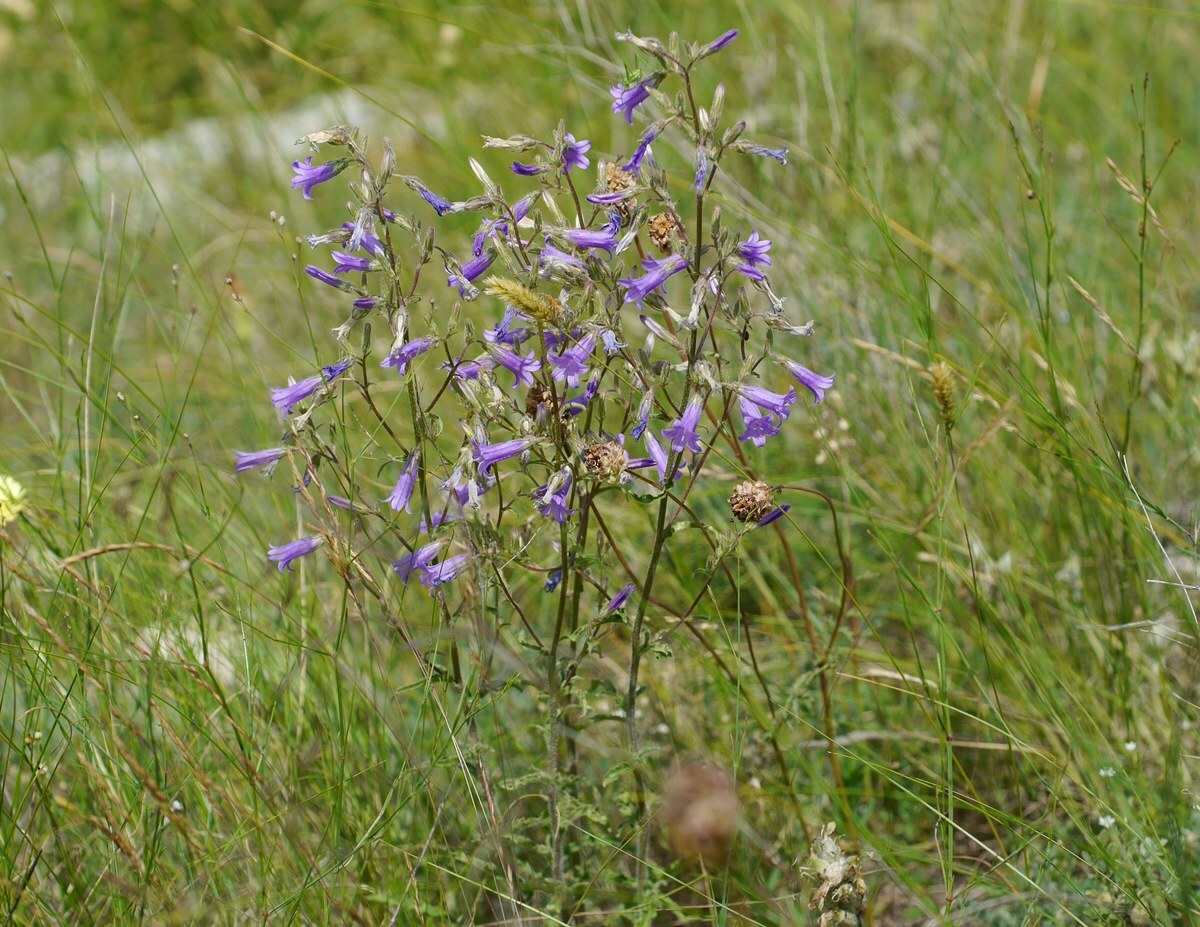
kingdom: Plantae
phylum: Tracheophyta
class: Magnoliopsida
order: Asterales
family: Campanulaceae
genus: Campanula
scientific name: Campanula sibirica
